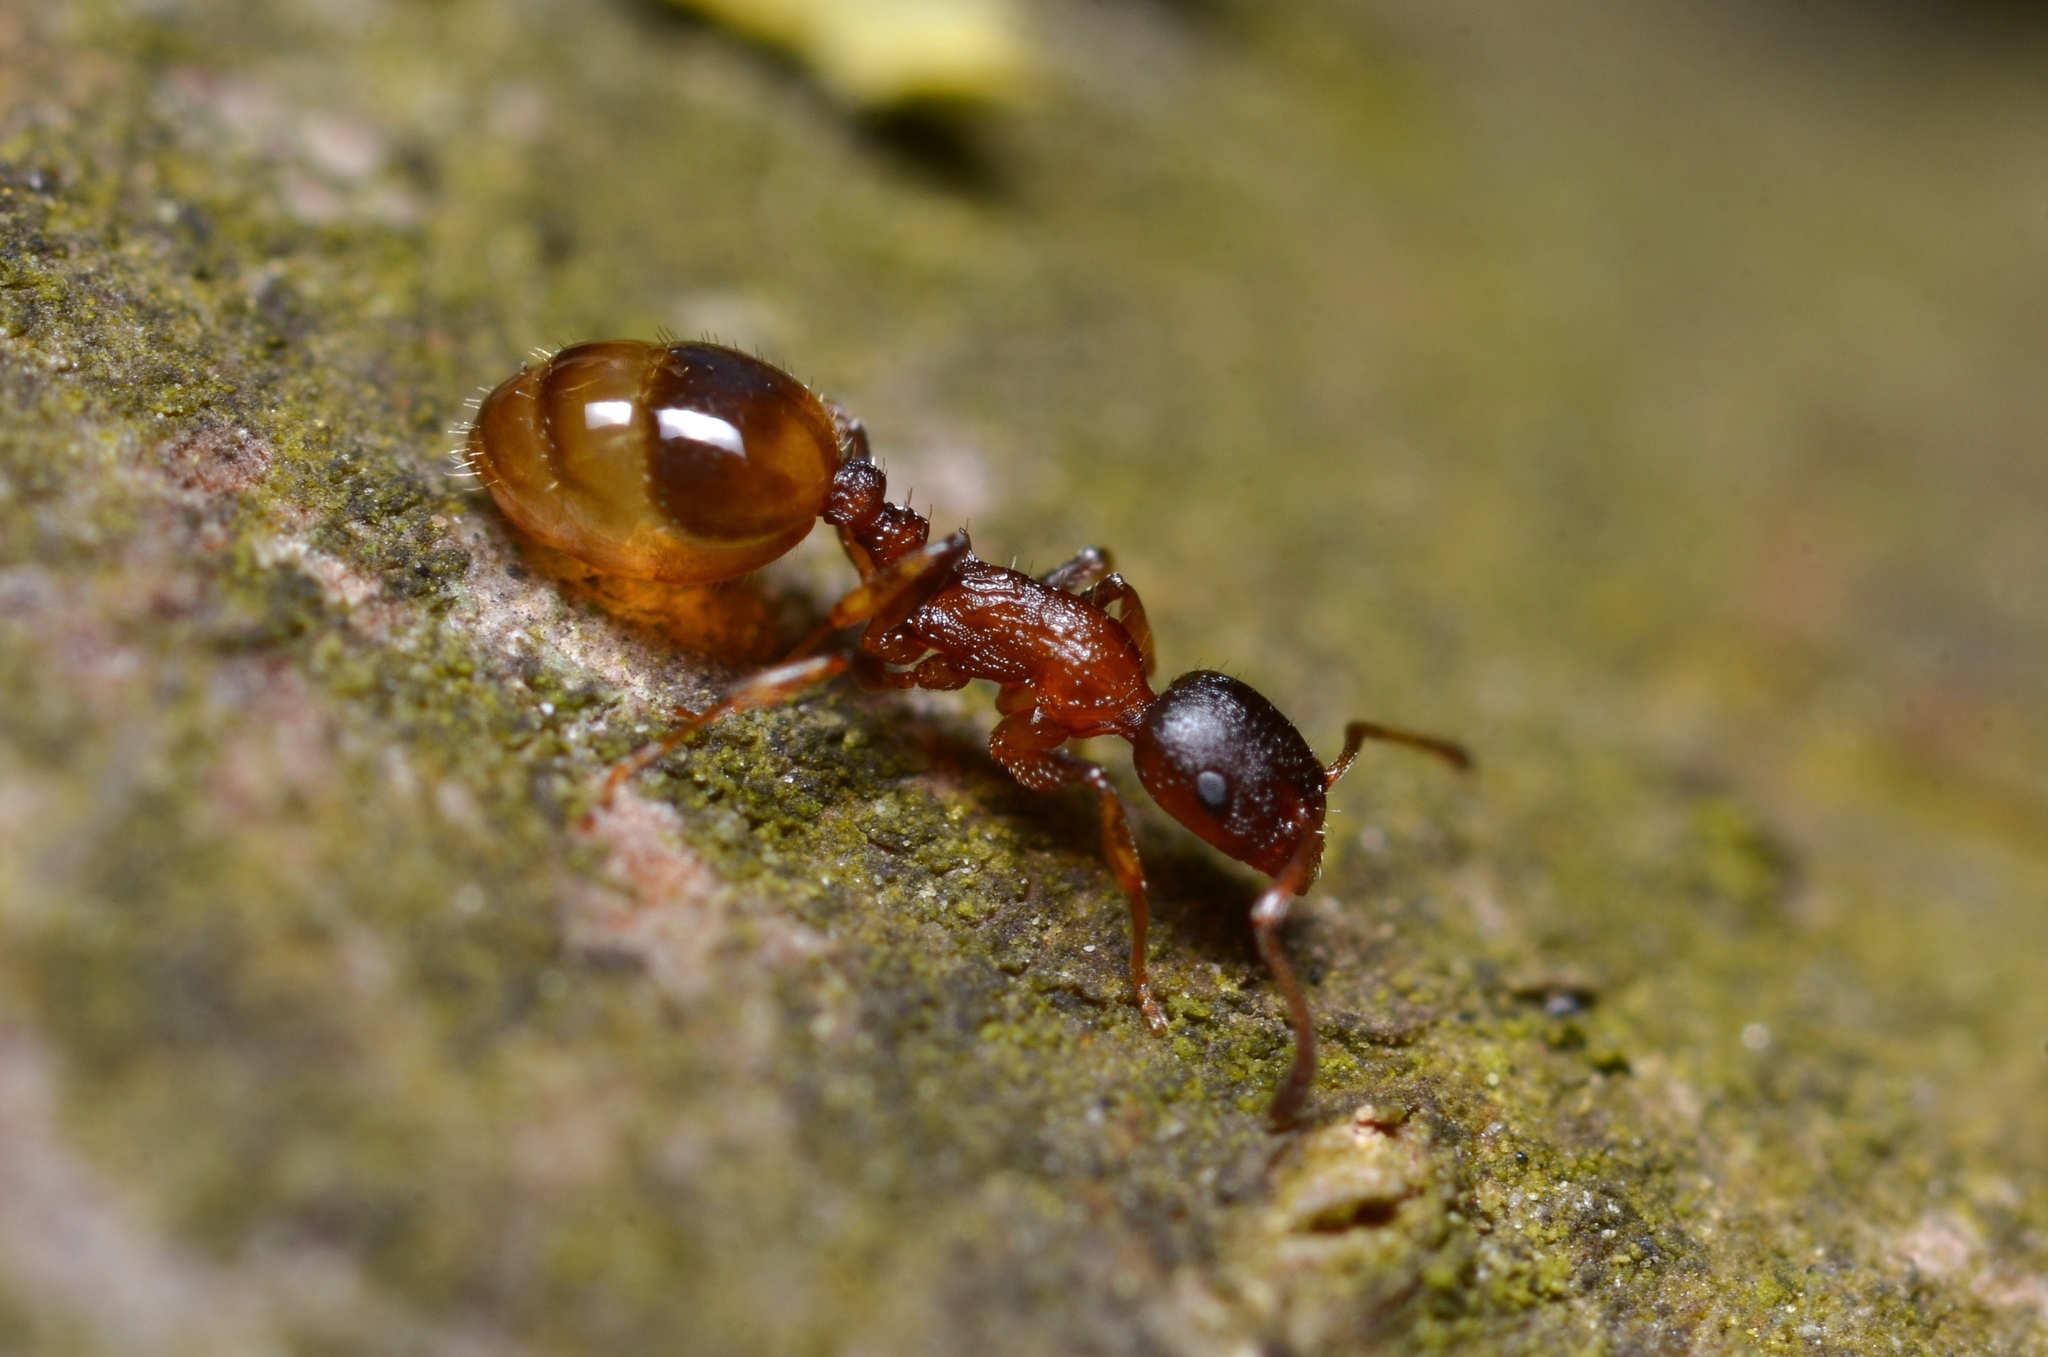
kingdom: Animalia
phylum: Arthropoda
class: Insecta
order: Hymenoptera
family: Formicidae
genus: Leptothorax
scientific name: Leptothorax affinis
